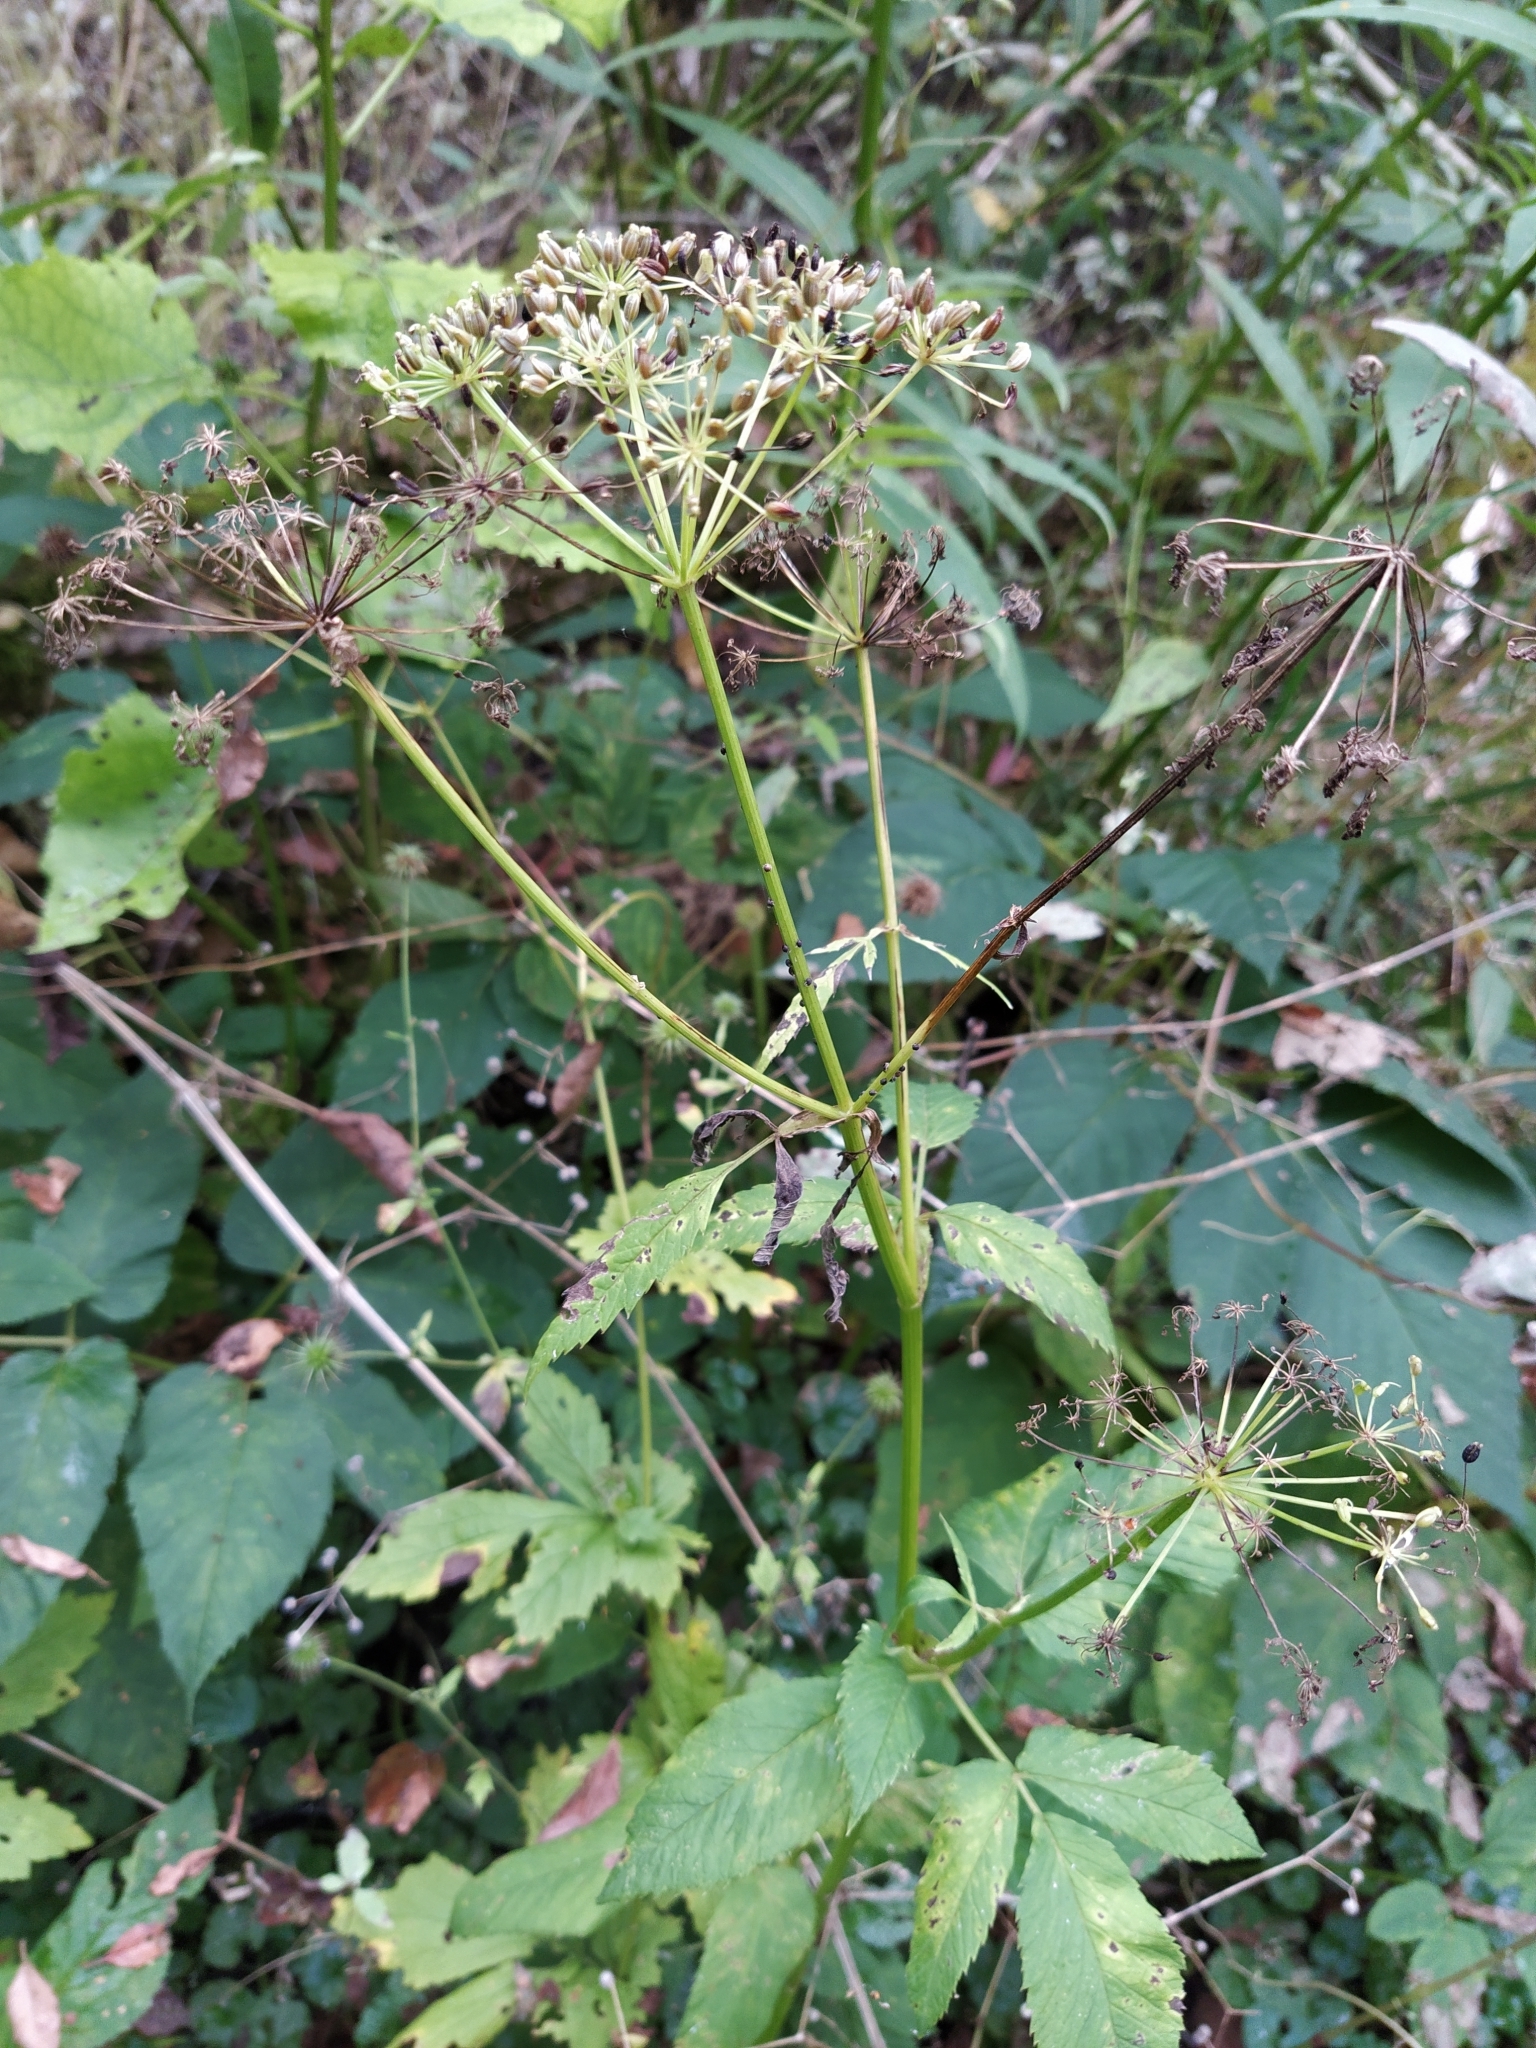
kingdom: Plantae
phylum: Tracheophyta
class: Magnoliopsida
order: Apiales
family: Apiaceae
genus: Aegopodium
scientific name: Aegopodium podagraria
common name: Ground-elder
